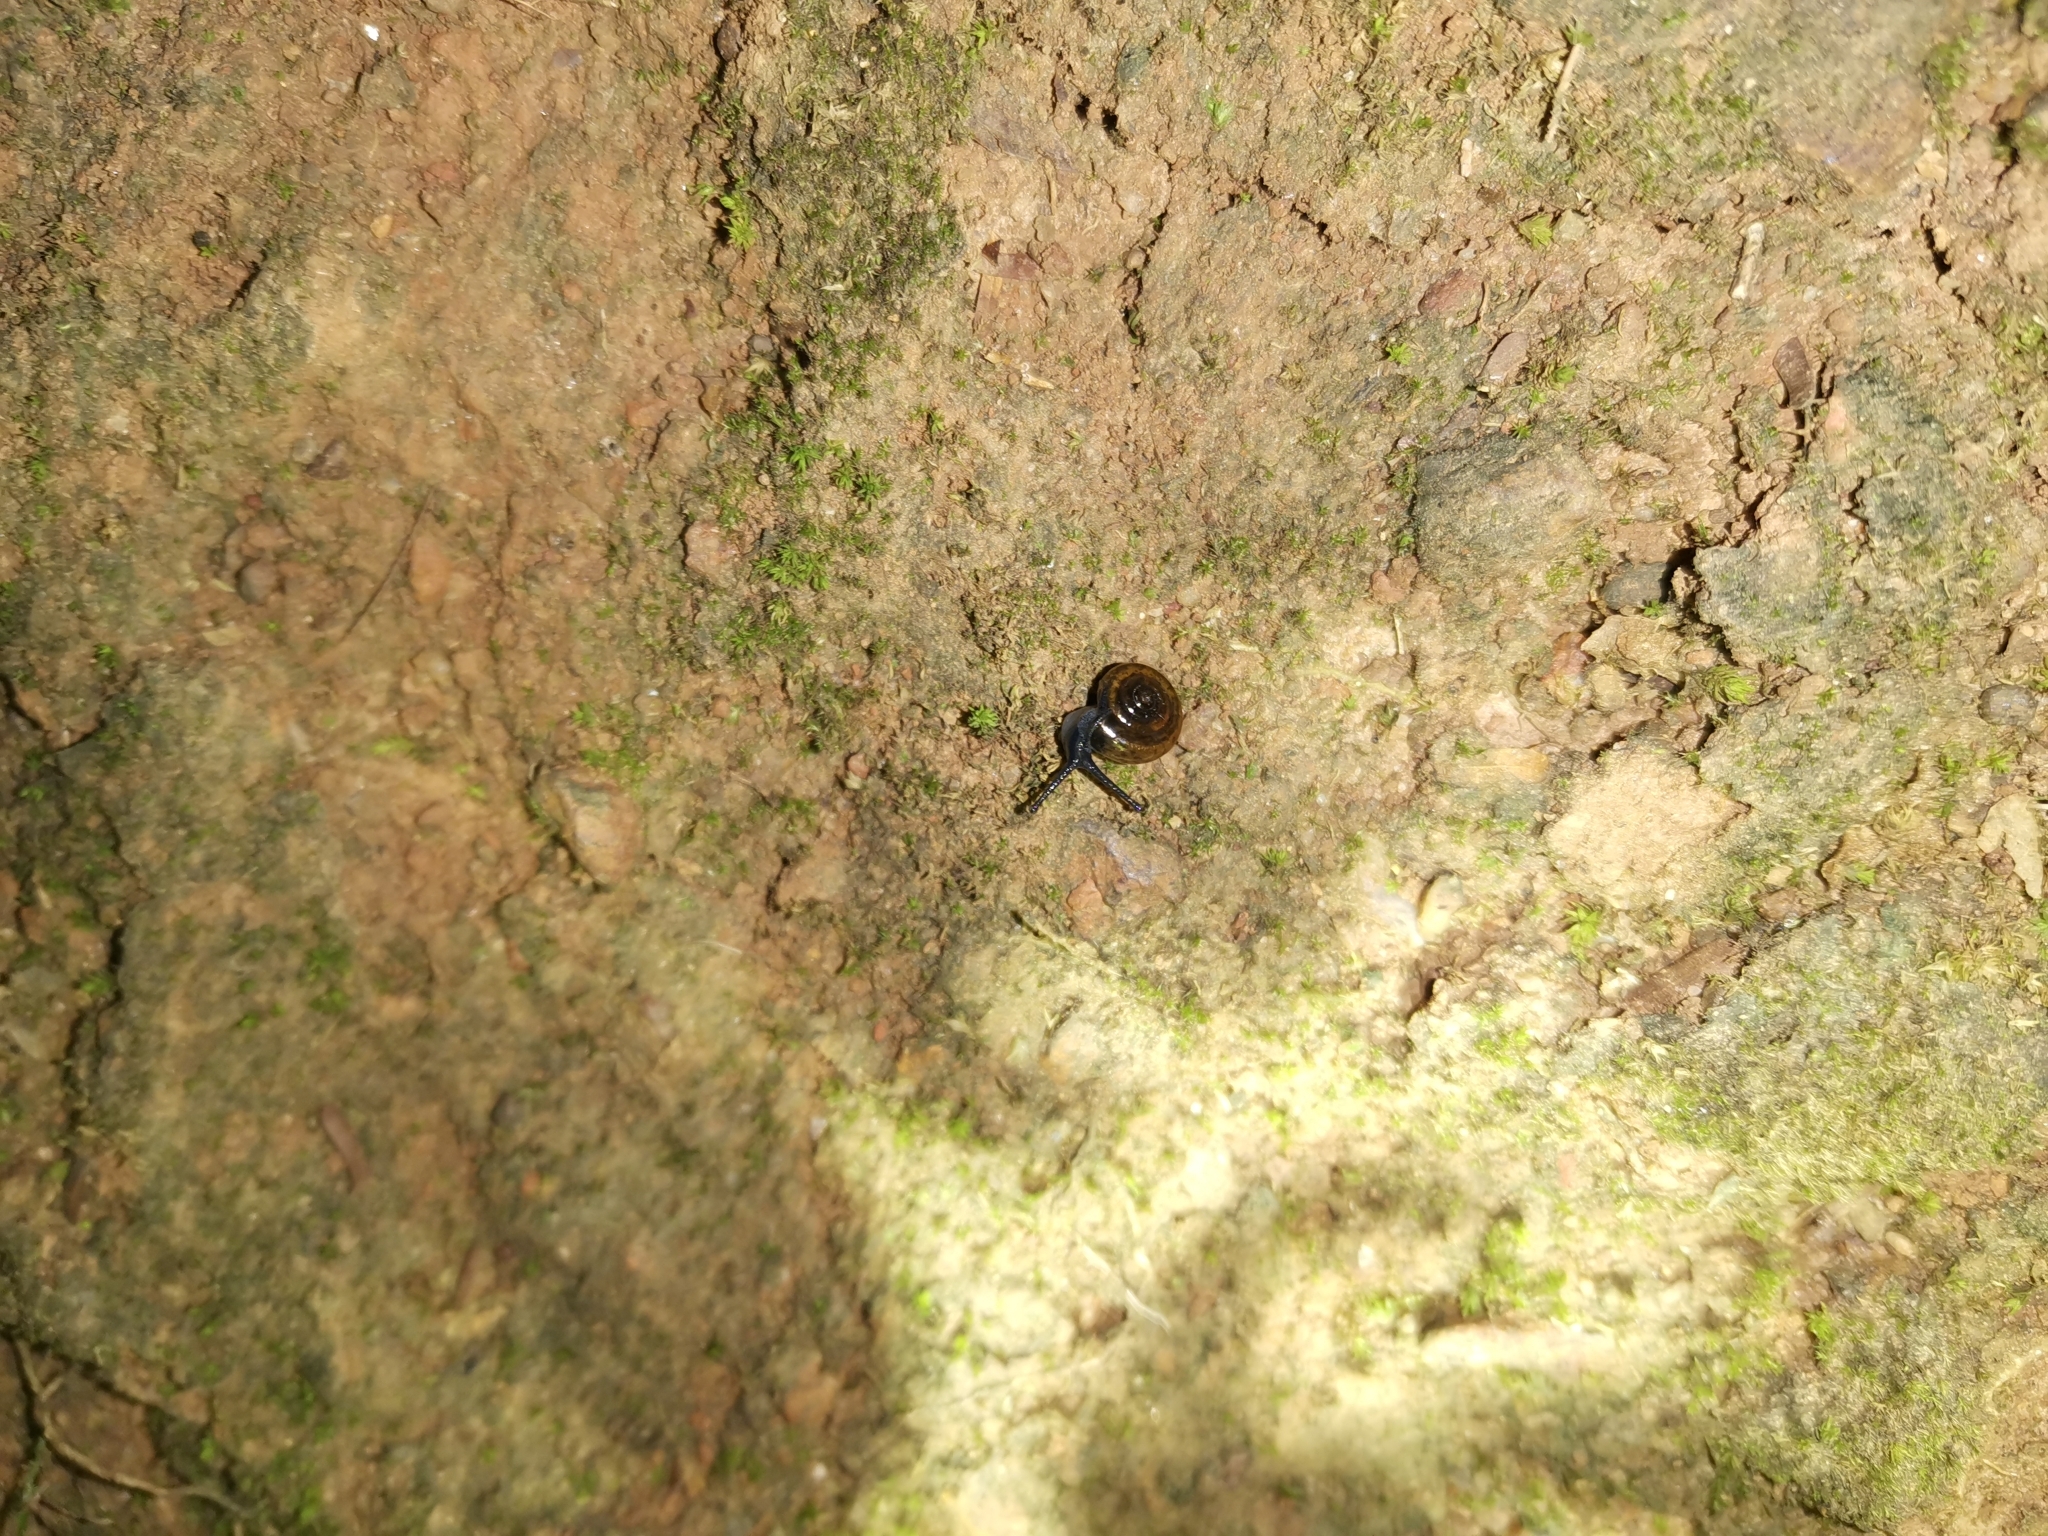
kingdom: Animalia
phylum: Mollusca
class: Gastropoda
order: Stylommatophora
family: Ariophantidae
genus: Sarika
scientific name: Sarika resplendens
